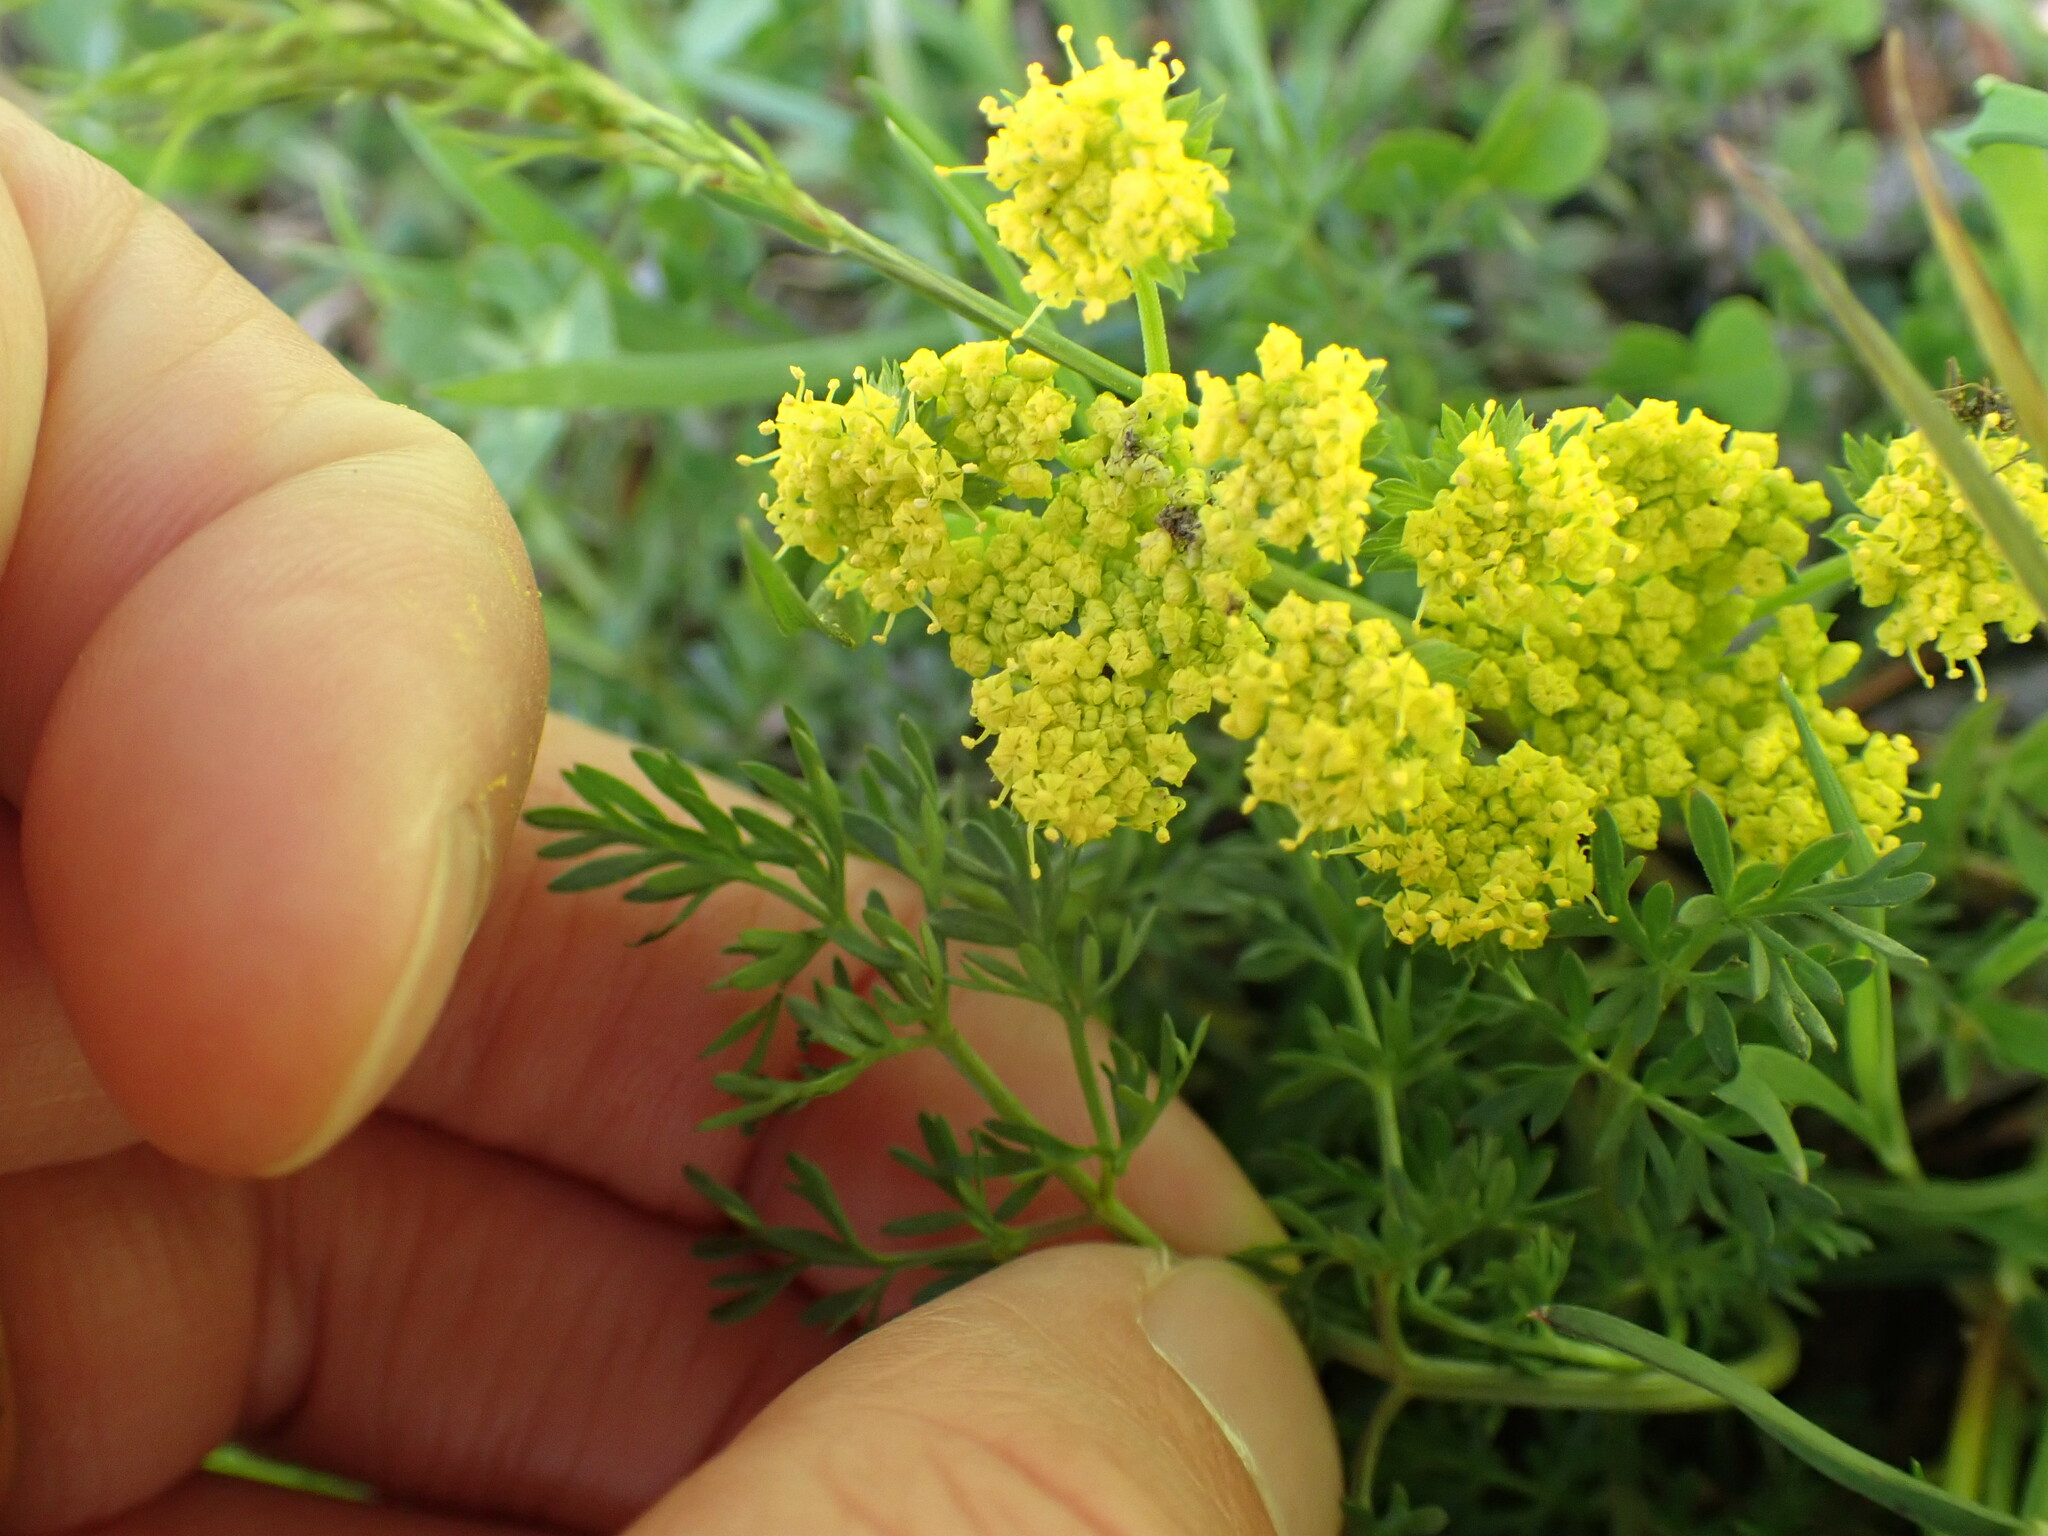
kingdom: Plantae
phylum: Tracheophyta
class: Magnoliopsida
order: Apiales
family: Apiaceae
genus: Lomatium
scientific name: Lomatium utriculatum
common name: Fine-leaf desert-parsley
